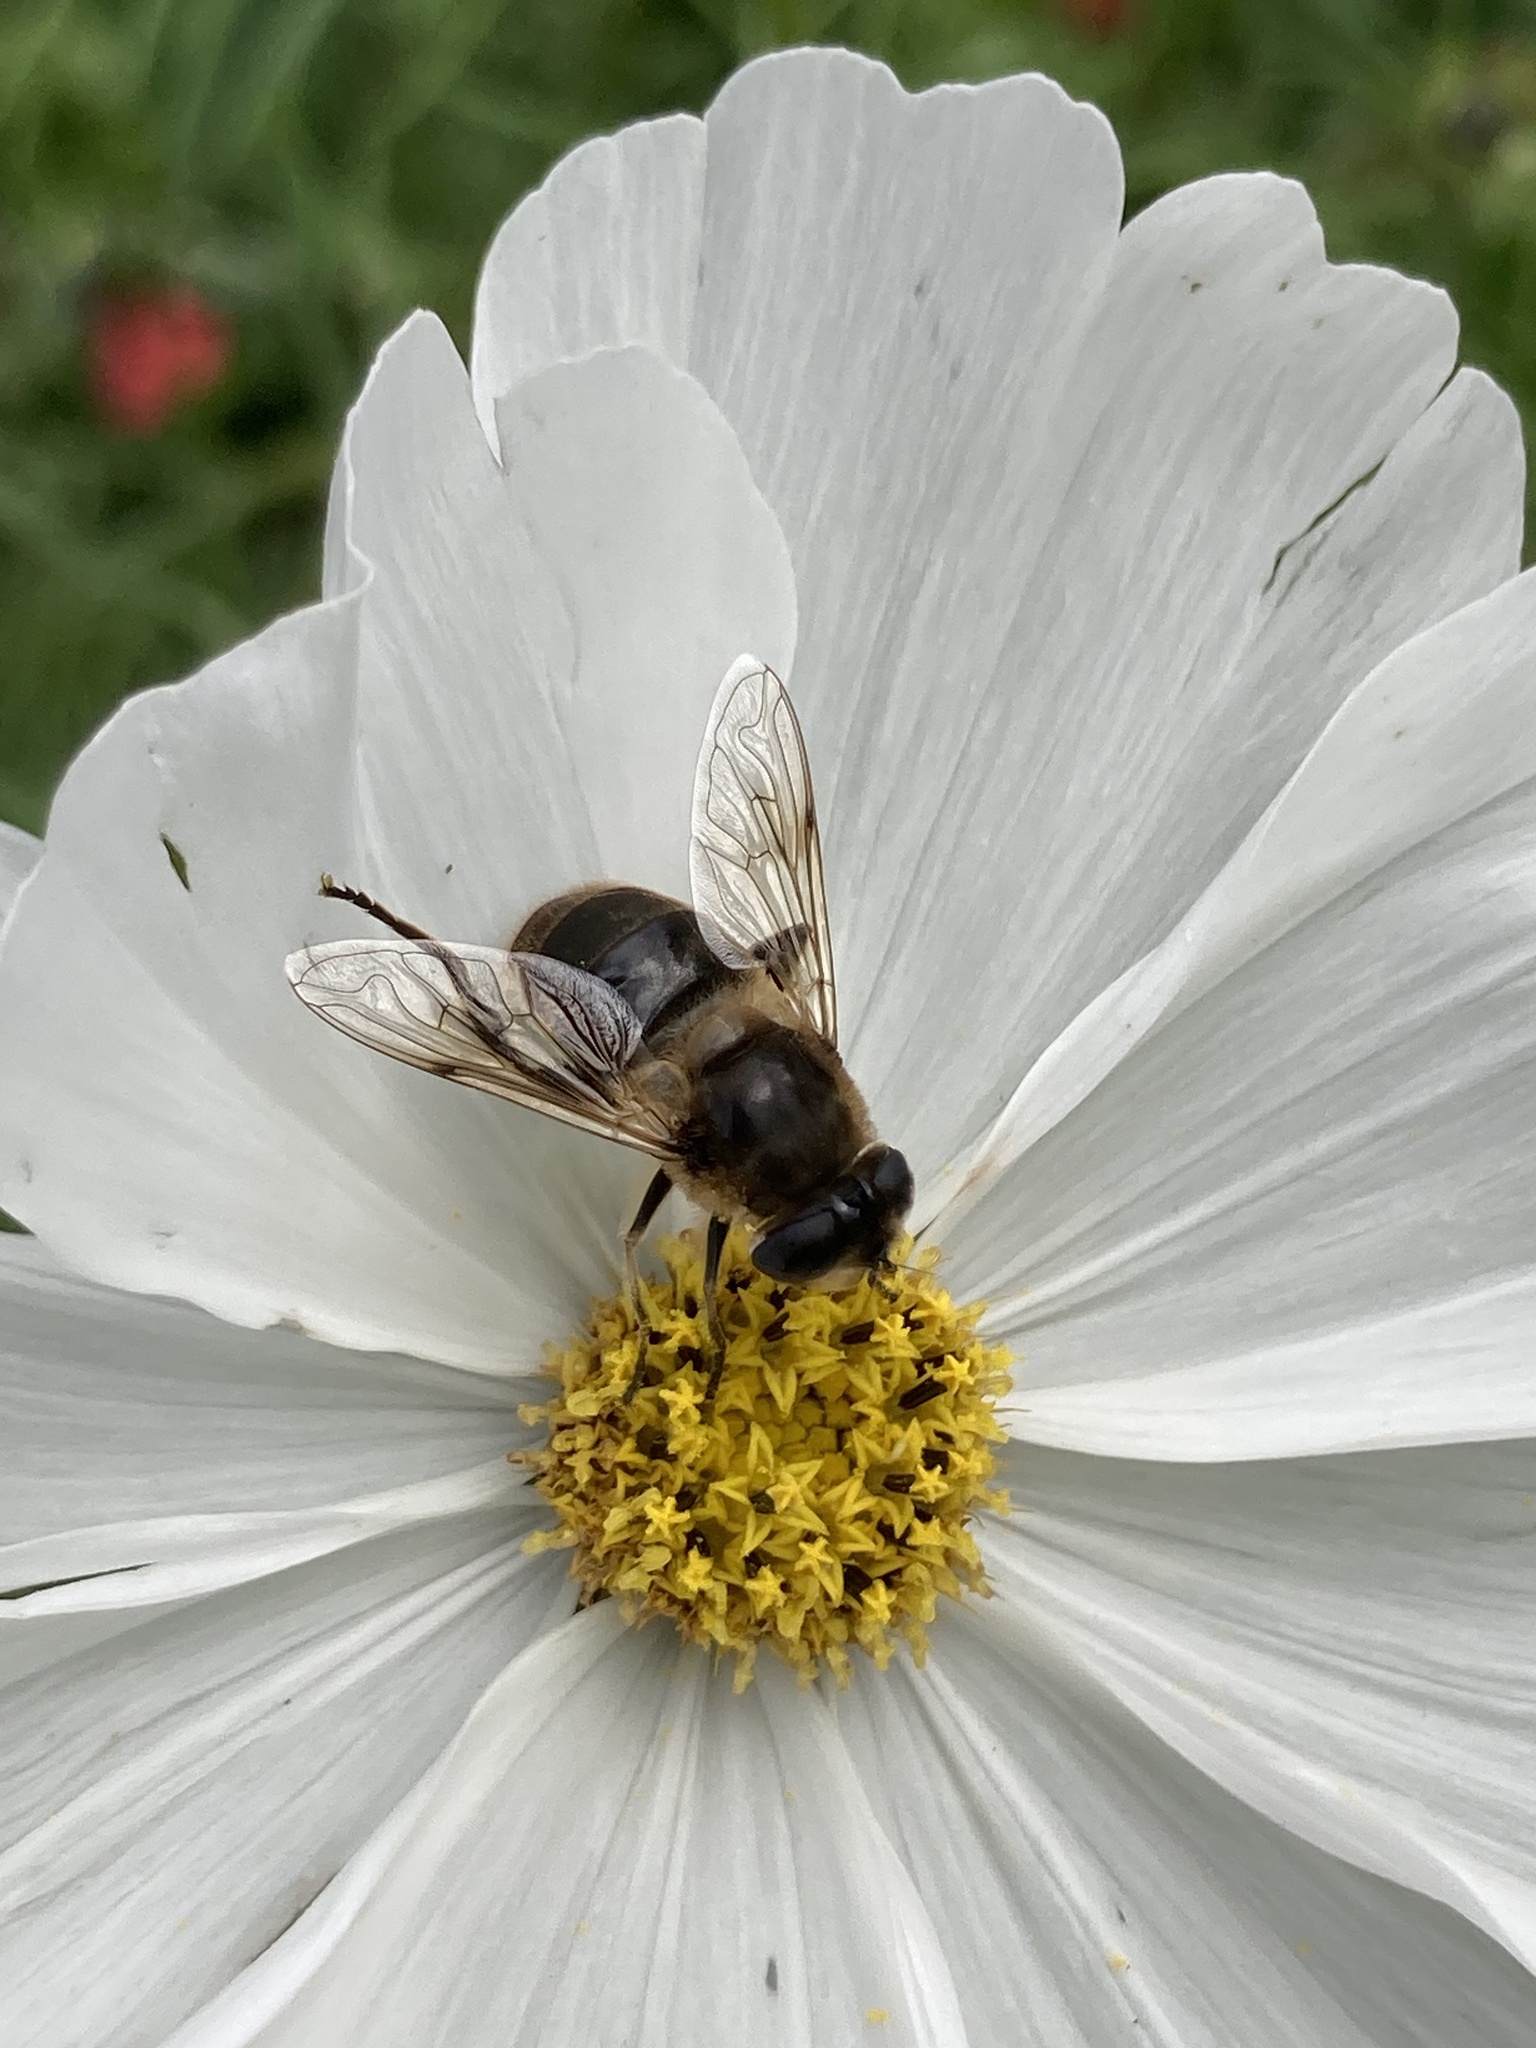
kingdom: Animalia
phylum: Arthropoda
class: Insecta
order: Diptera
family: Syrphidae
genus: Eristalis
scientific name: Eristalis tenax
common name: Drone fly
